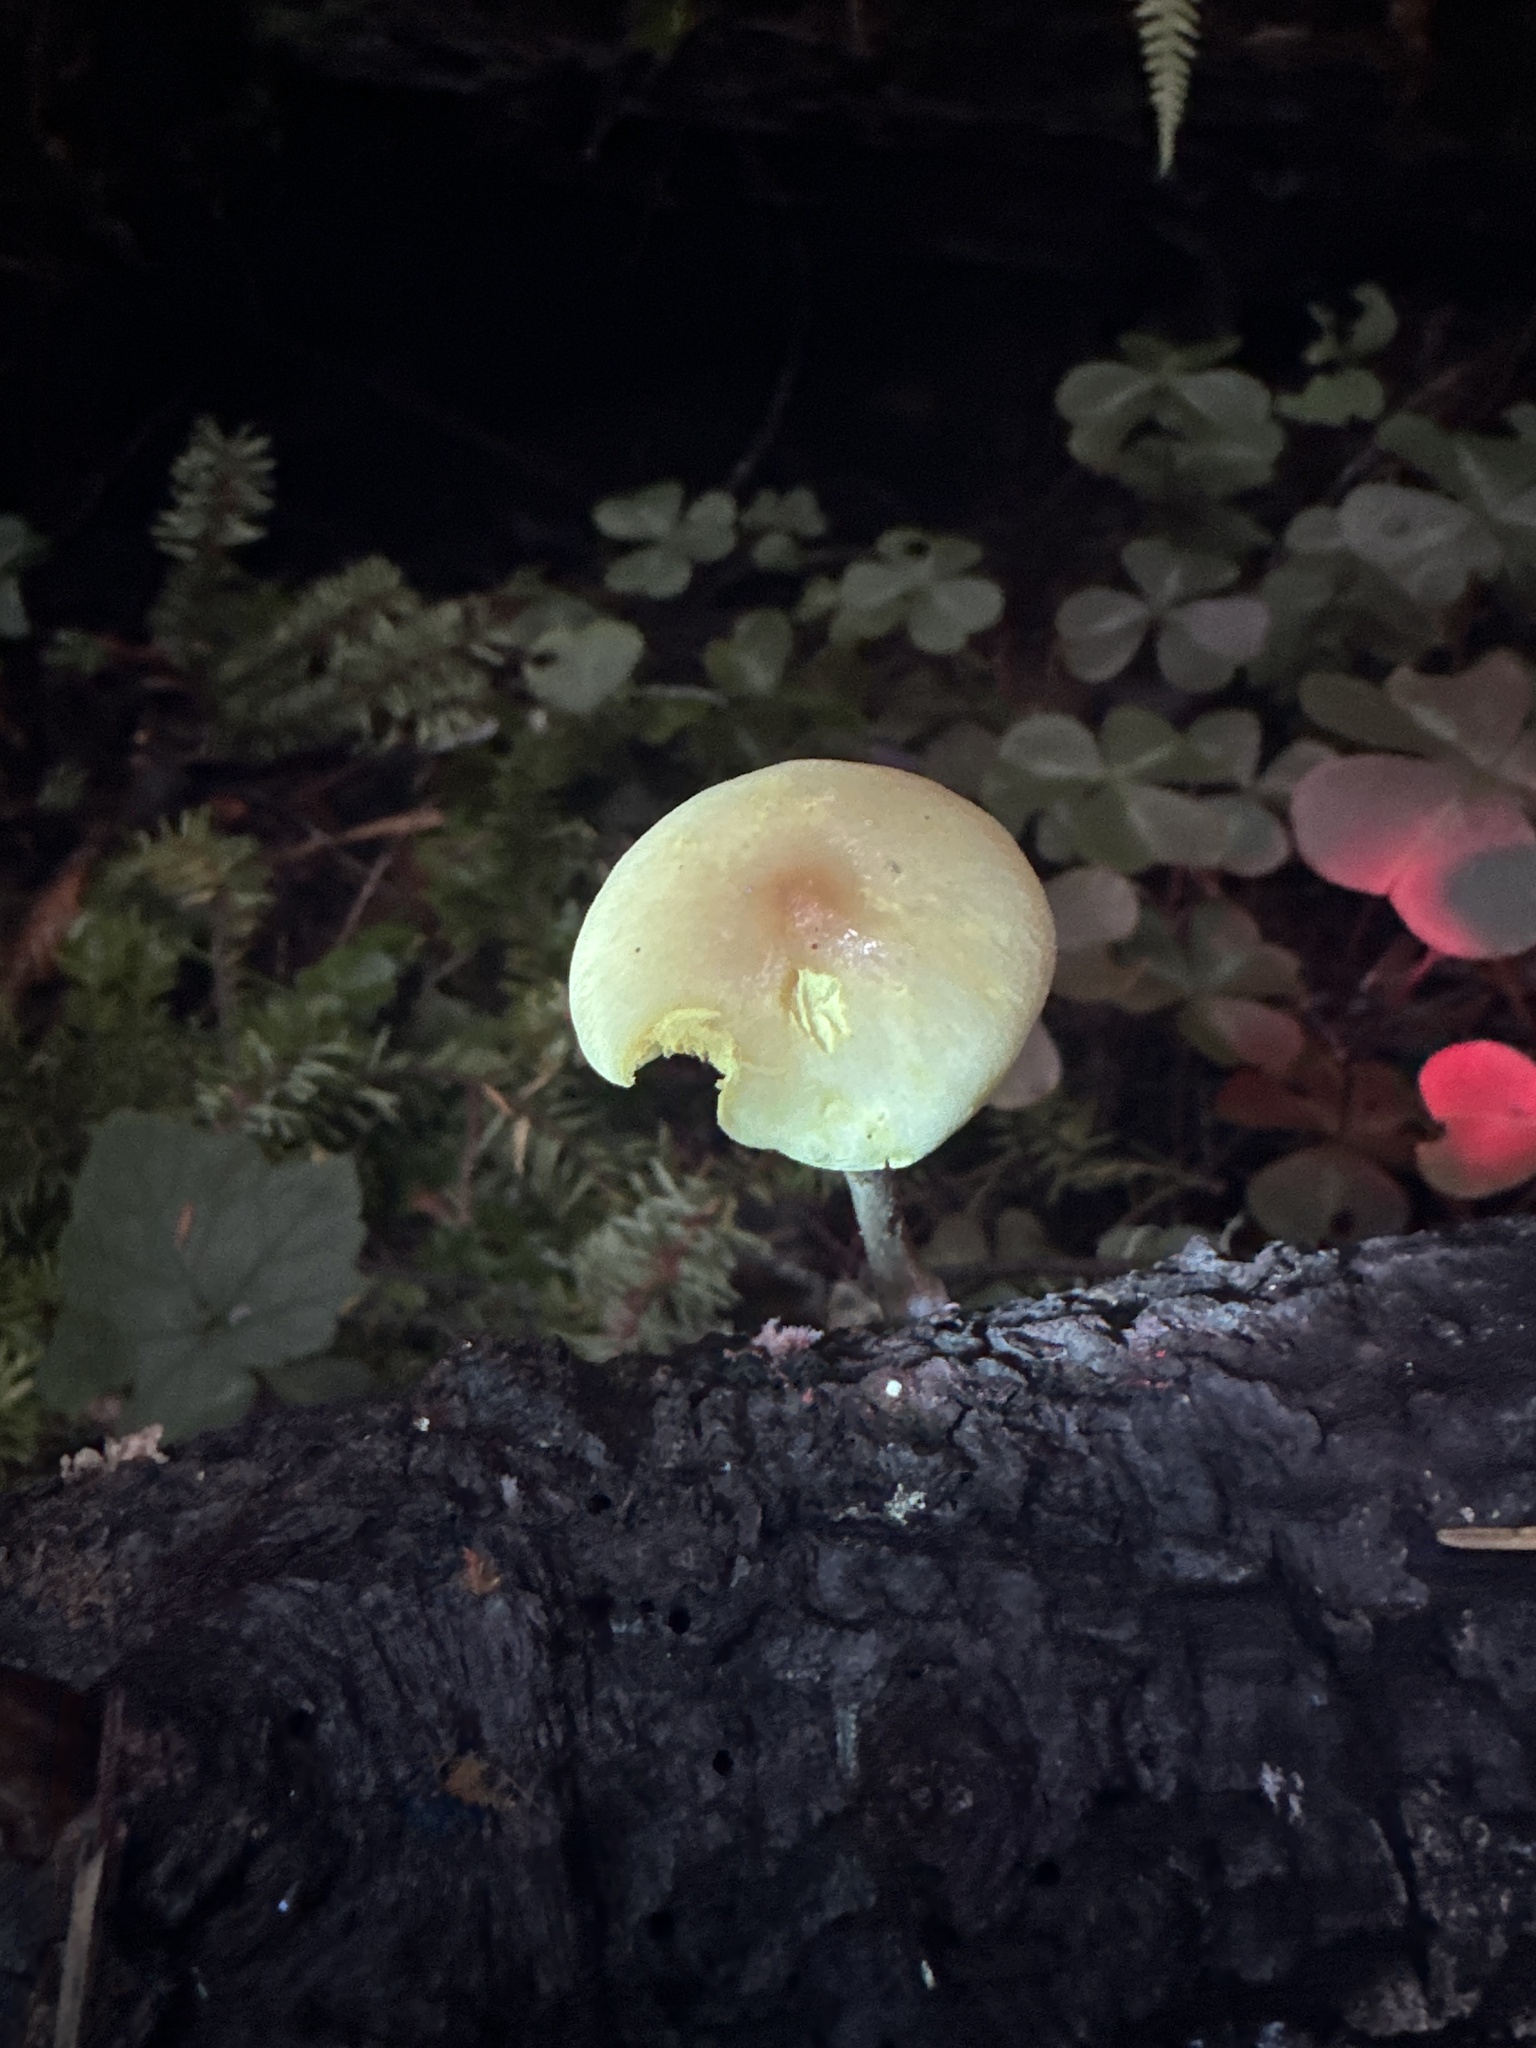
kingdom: Fungi
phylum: Basidiomycota
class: Agaricomycetes
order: Agaricales
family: Strophariaceae
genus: Hypholoma
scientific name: Hypholoma capnoides
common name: Conifer tuft
